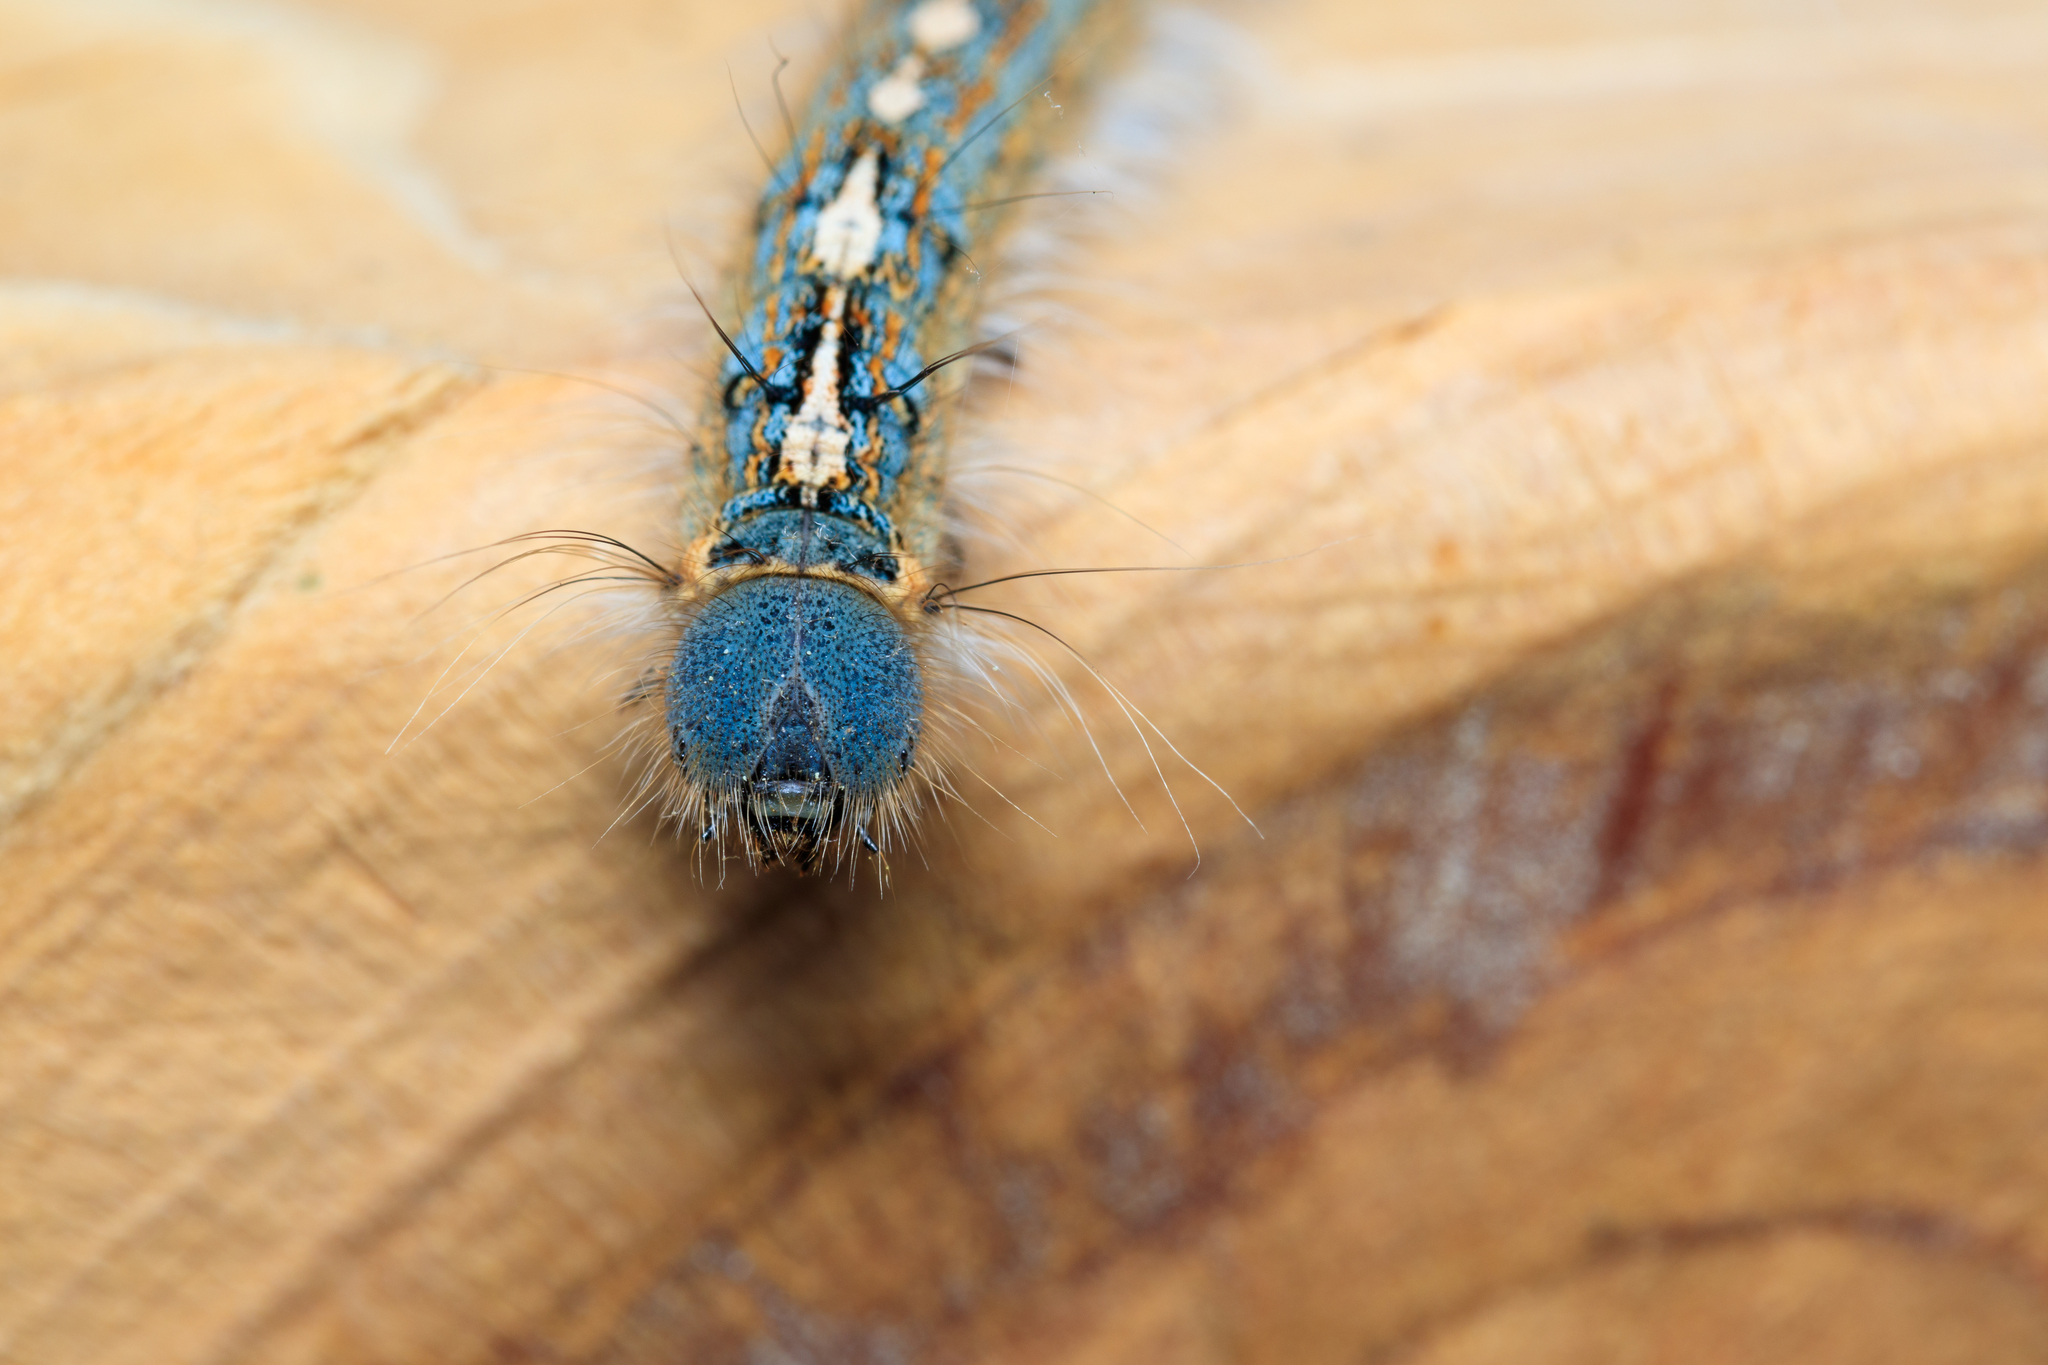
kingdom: Animalia
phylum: Arthropoda
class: Insecta
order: Lepidoptera
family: Lasiocampidae
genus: Malacosoma
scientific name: Malacosoma disstria
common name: Forest tent caterpillar
